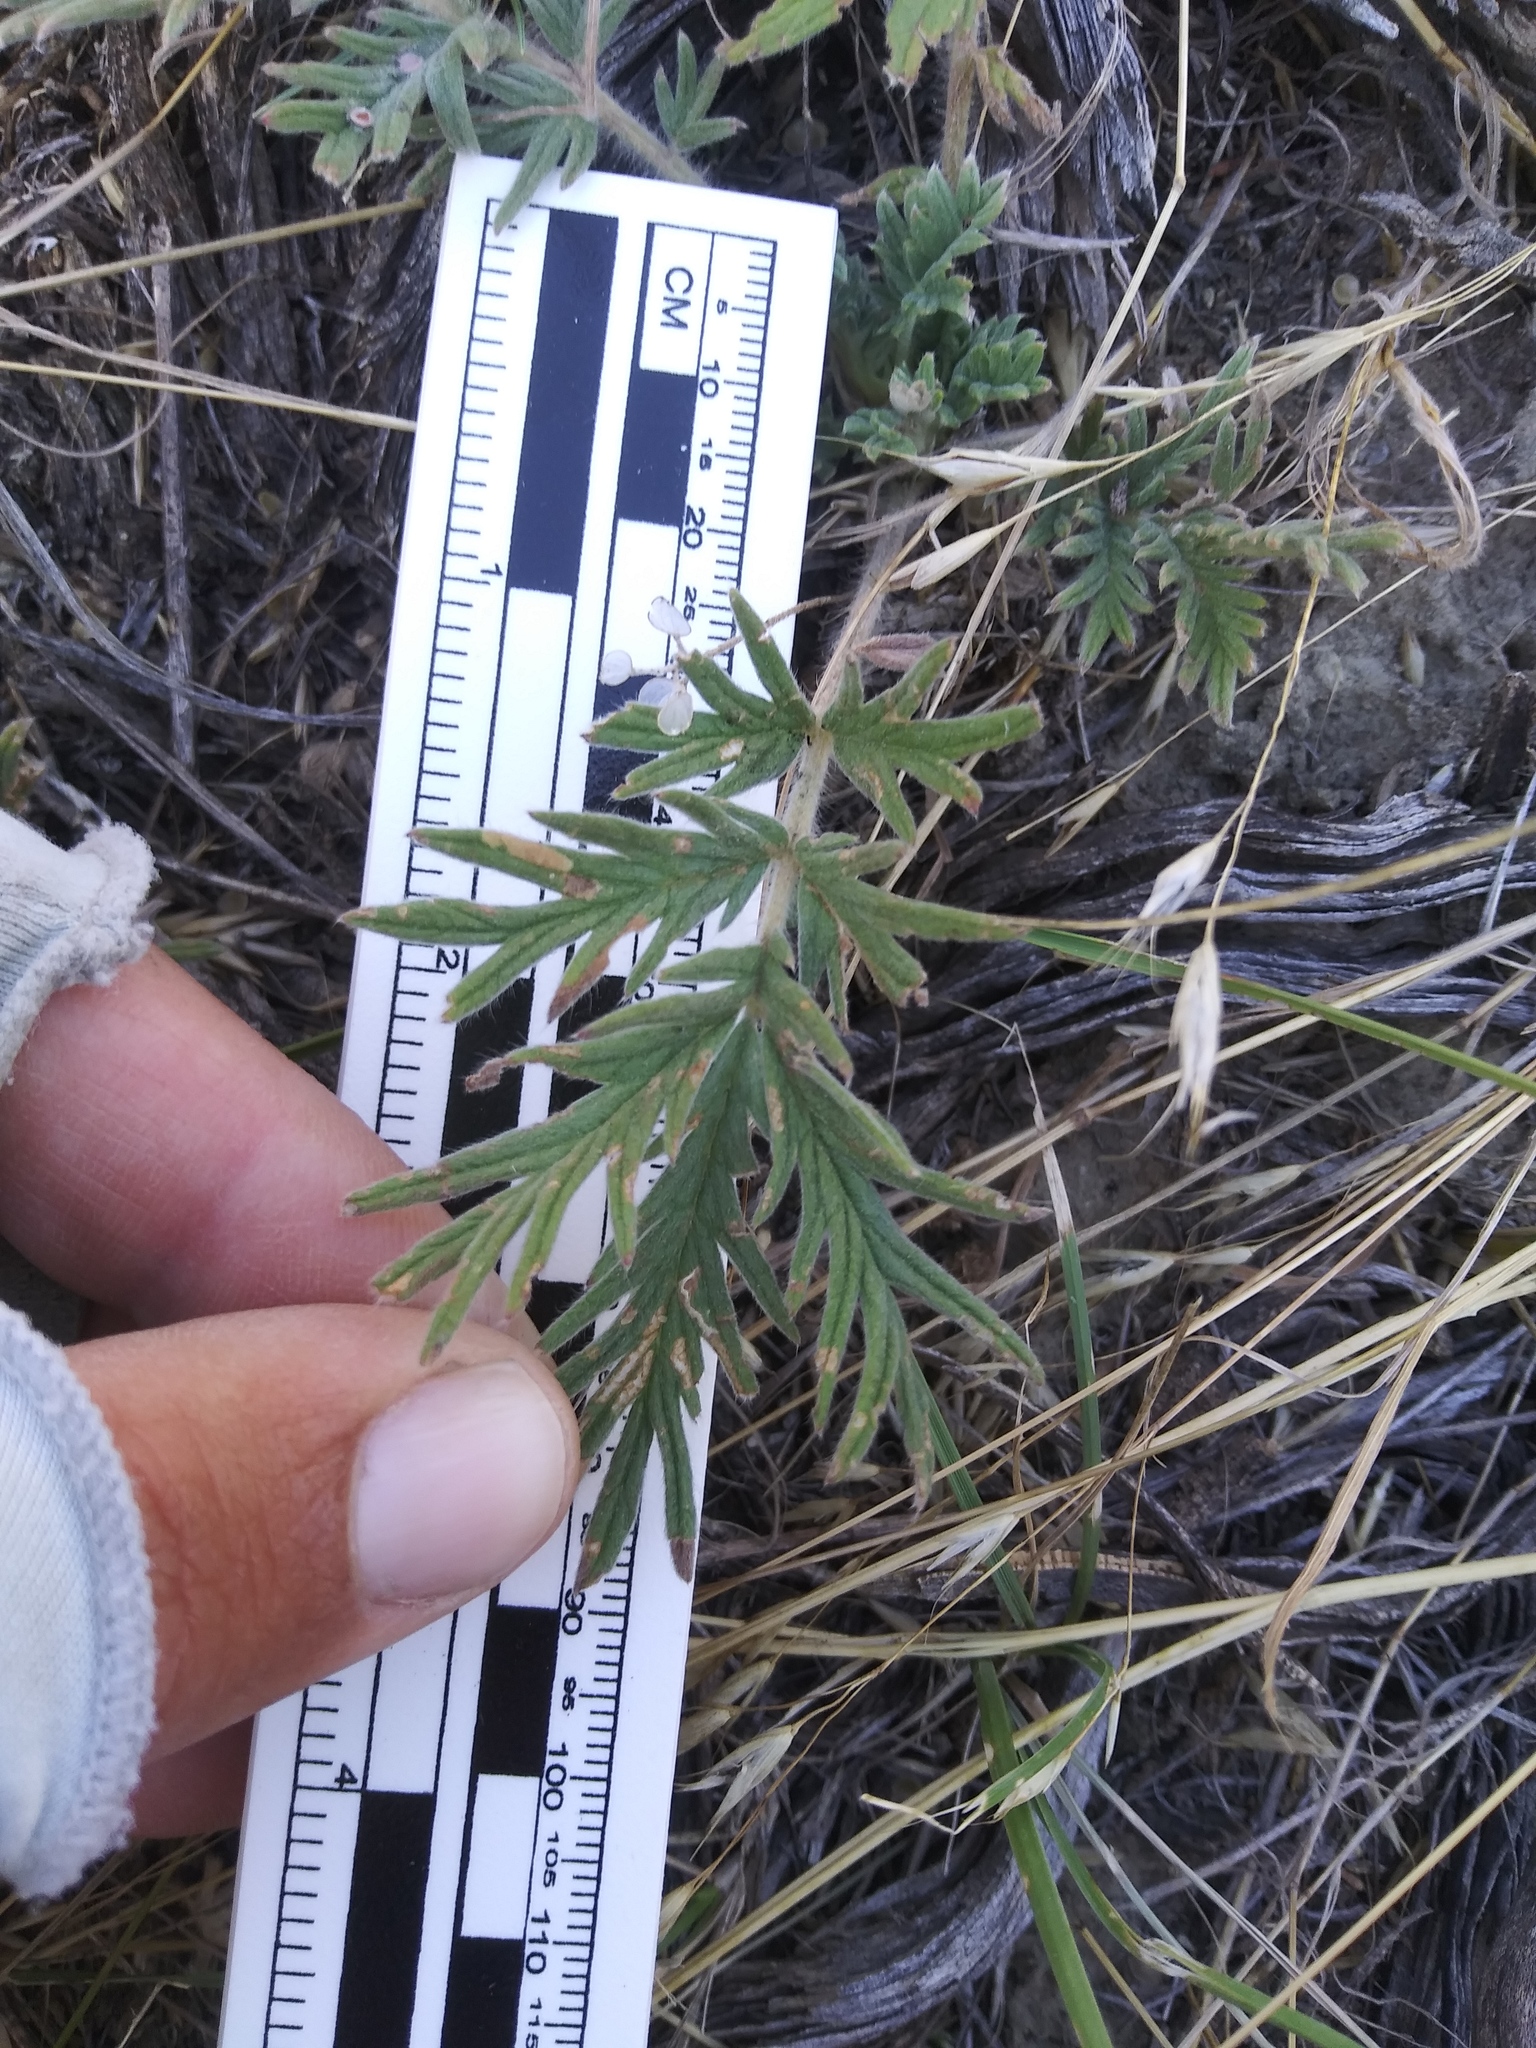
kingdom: Plantae
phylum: Tracheophyta
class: Magnoliopsida
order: Rosales
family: Rosaceae
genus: Potentilla
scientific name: Potentilla pensylvanica
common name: Pennsylvania cinquefoil
